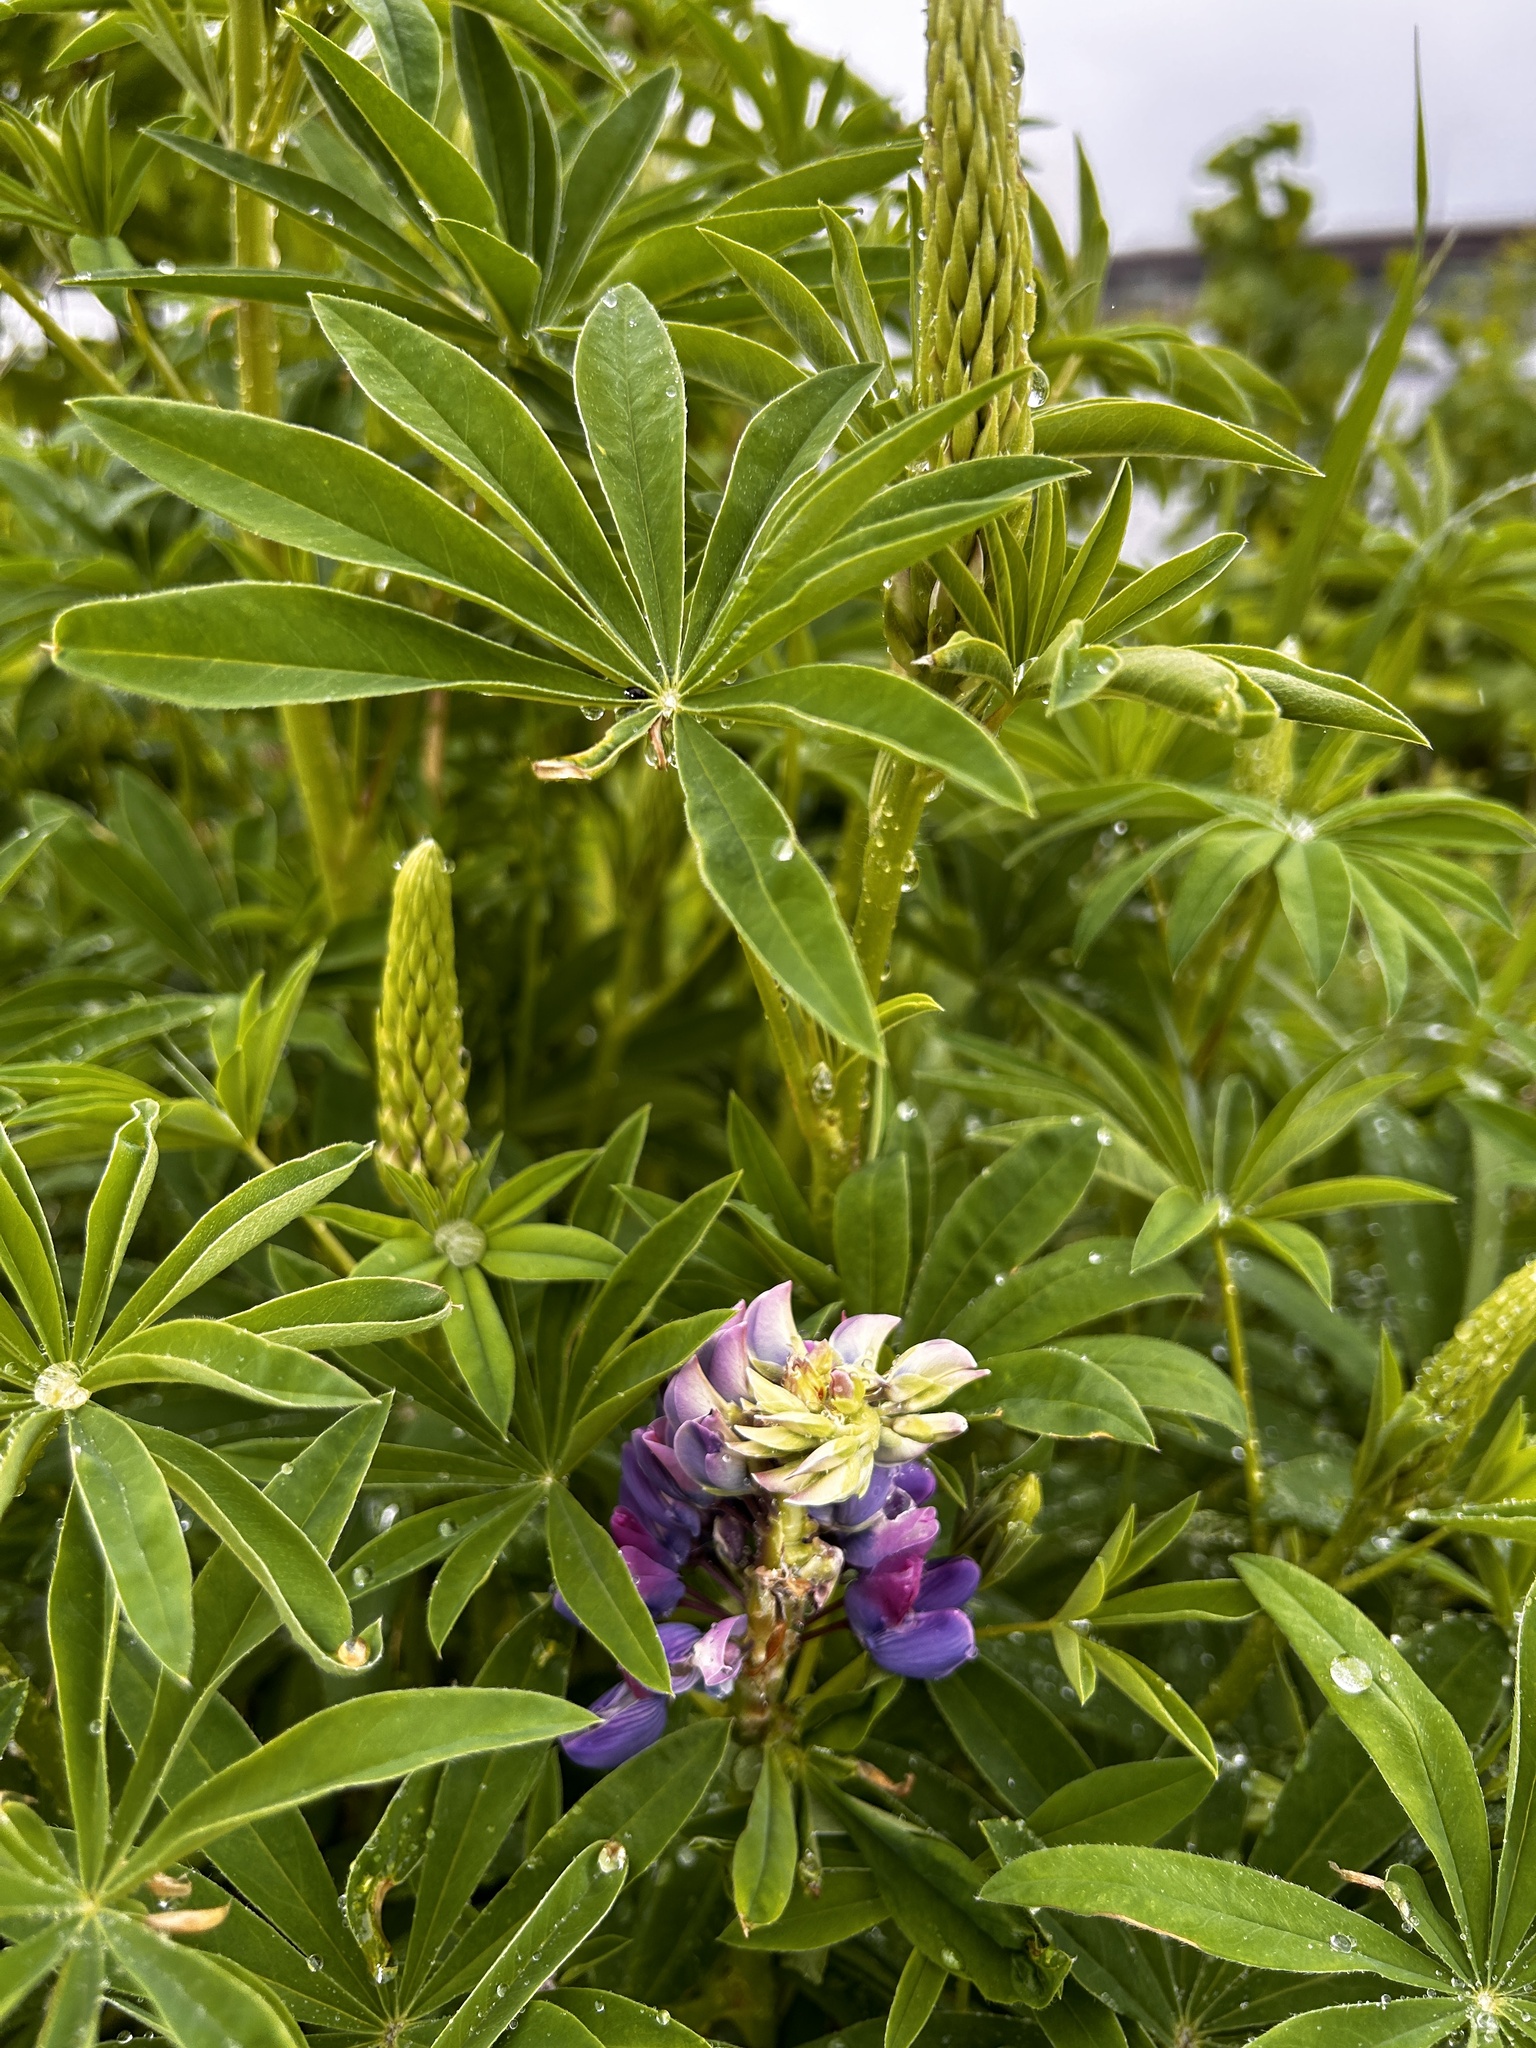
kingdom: Plantae
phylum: Tracheophyta
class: Magnoliopsida
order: Fabales
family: Fabaceae
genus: Lupinus
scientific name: Lupinus polyphyllus
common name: Garden lupin
